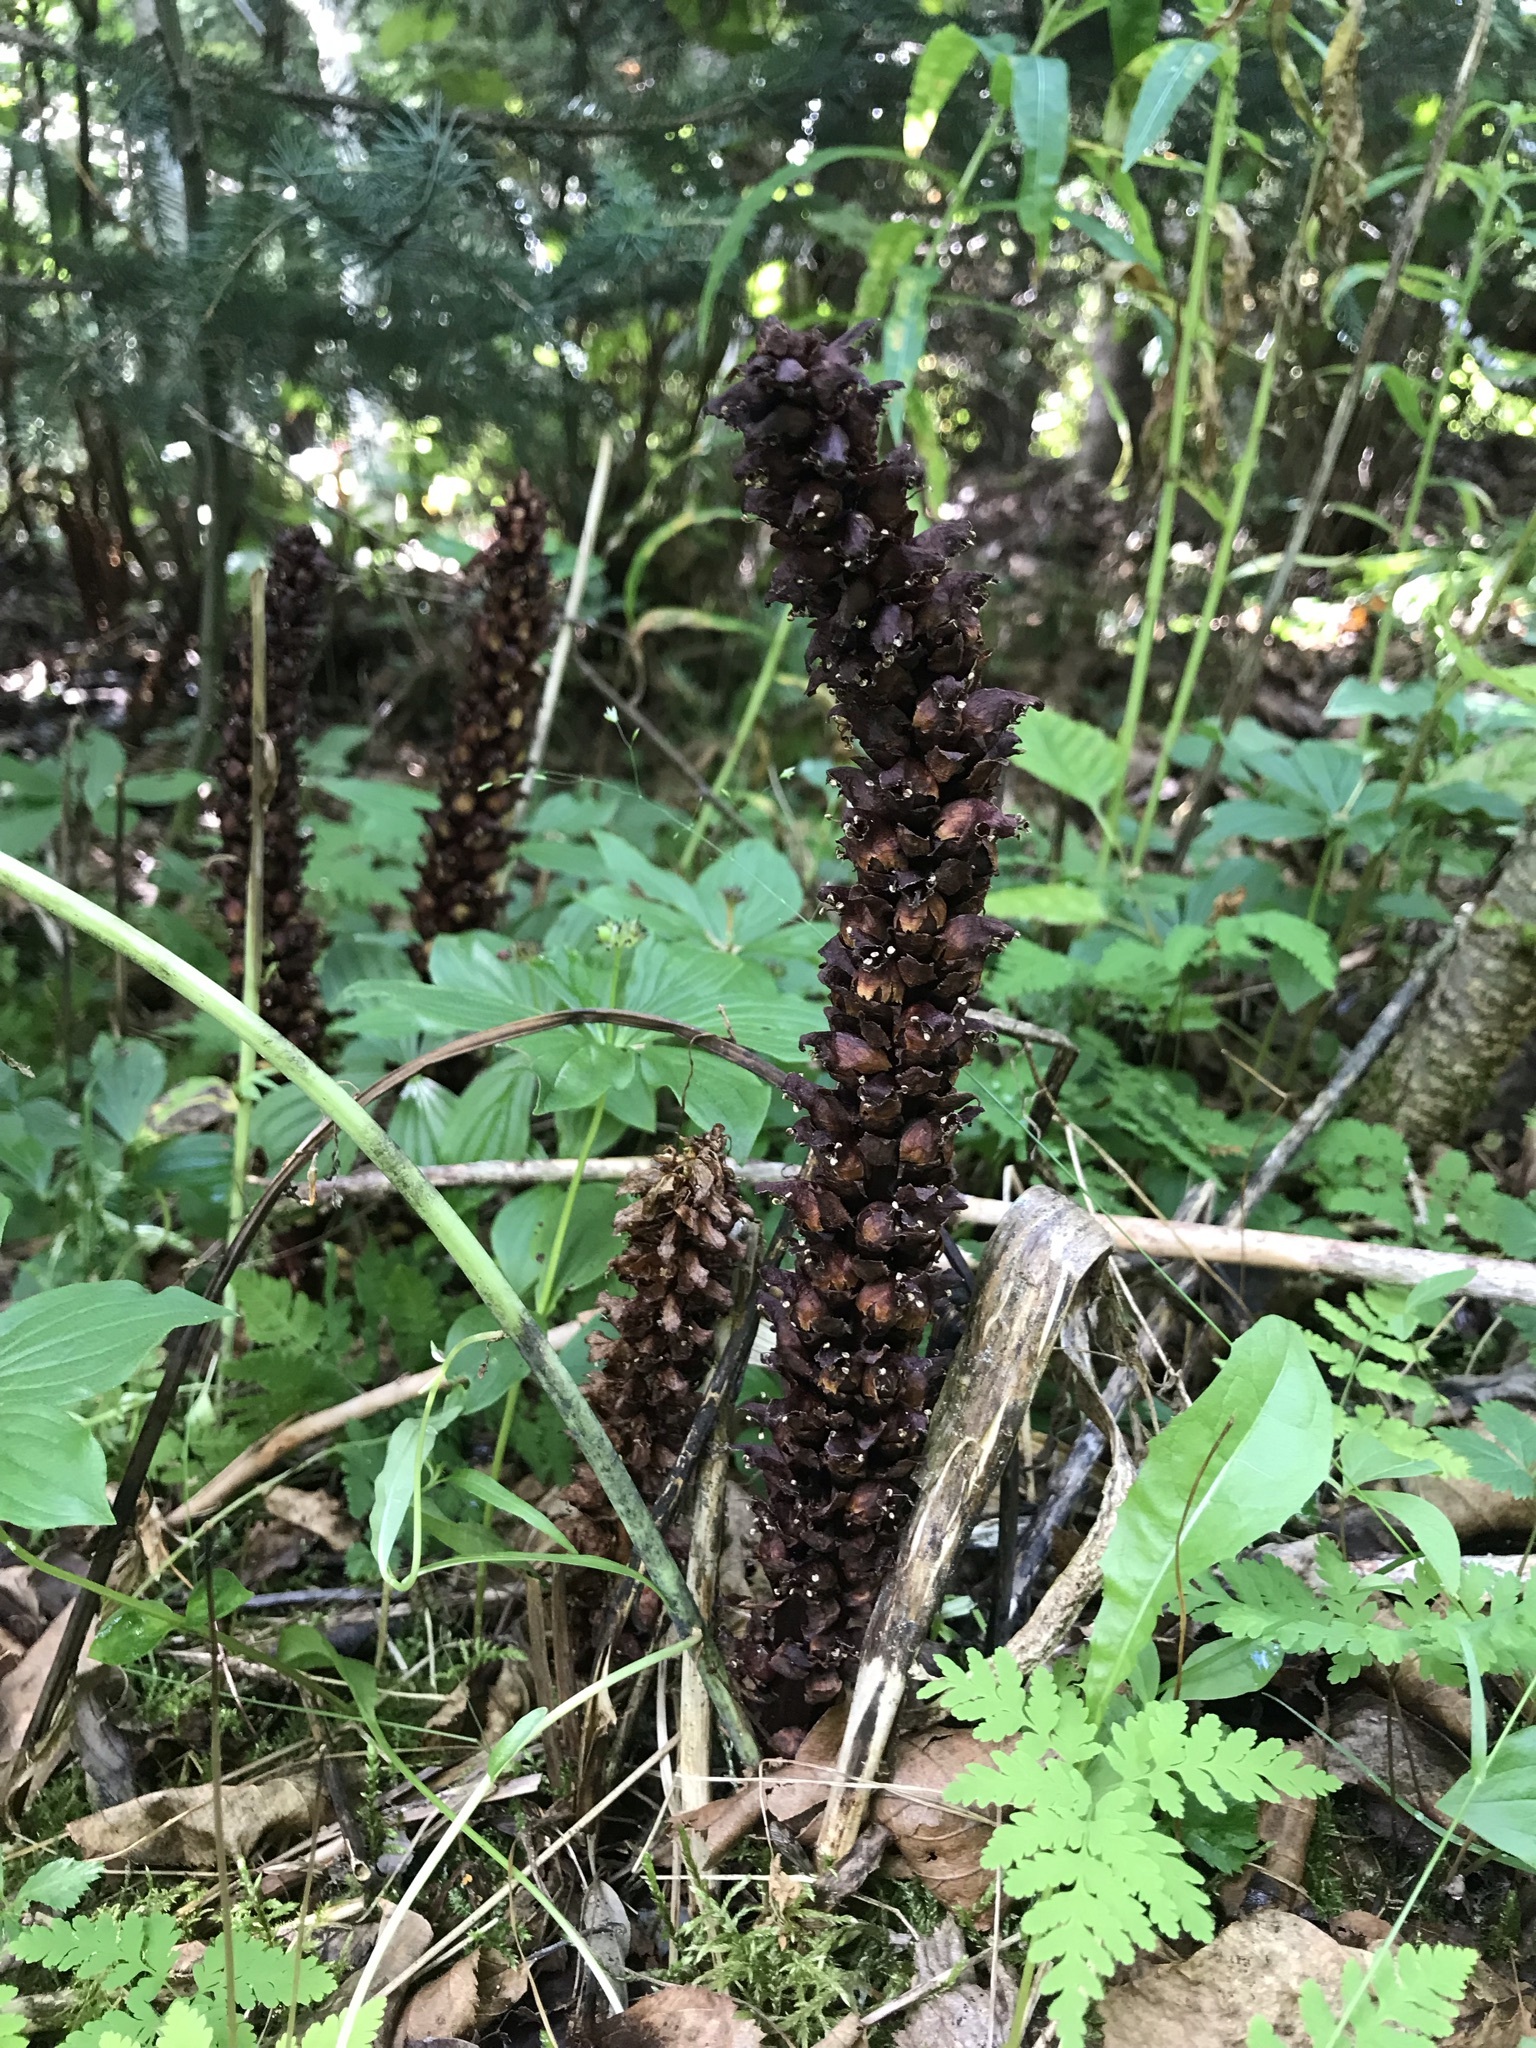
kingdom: Plantae
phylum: Tracheophyta
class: Magnoliopsida
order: Lamiales
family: Orobanchaceae
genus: Boschniakia
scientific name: Boschniakia rossica
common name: Poque
